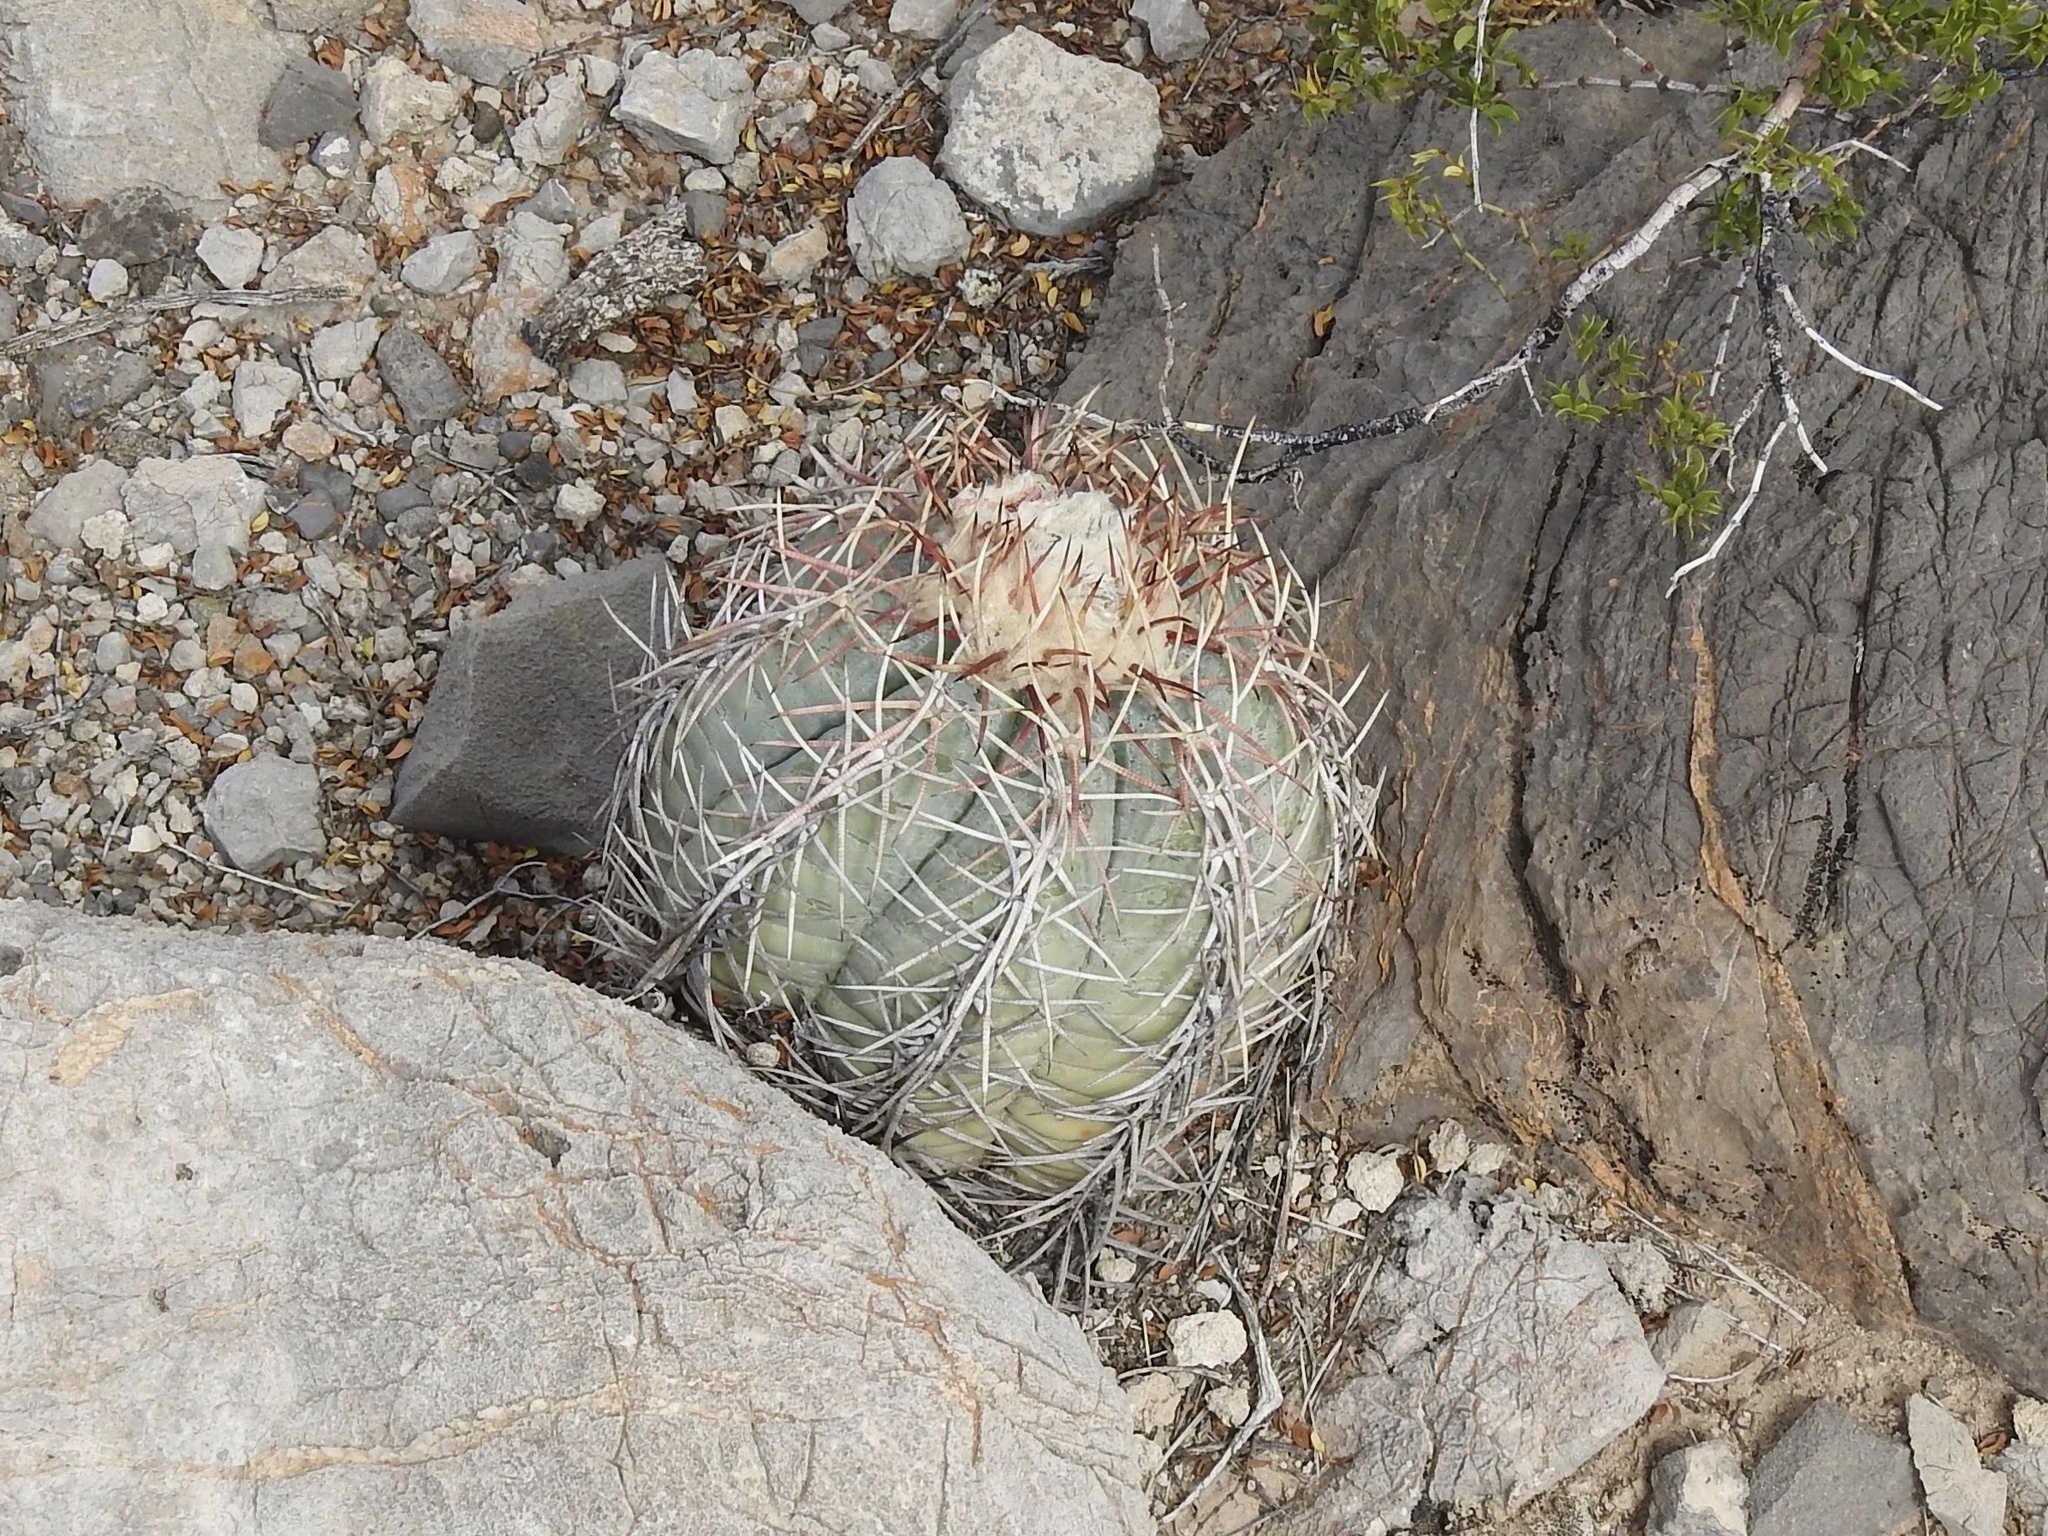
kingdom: Plantae
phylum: Tracheophyta
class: Magnoliopsida
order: Caryophyllales
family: Cactaceae
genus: Echinocactus
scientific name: Echinocactus horizonthalonius
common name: Devilshead
